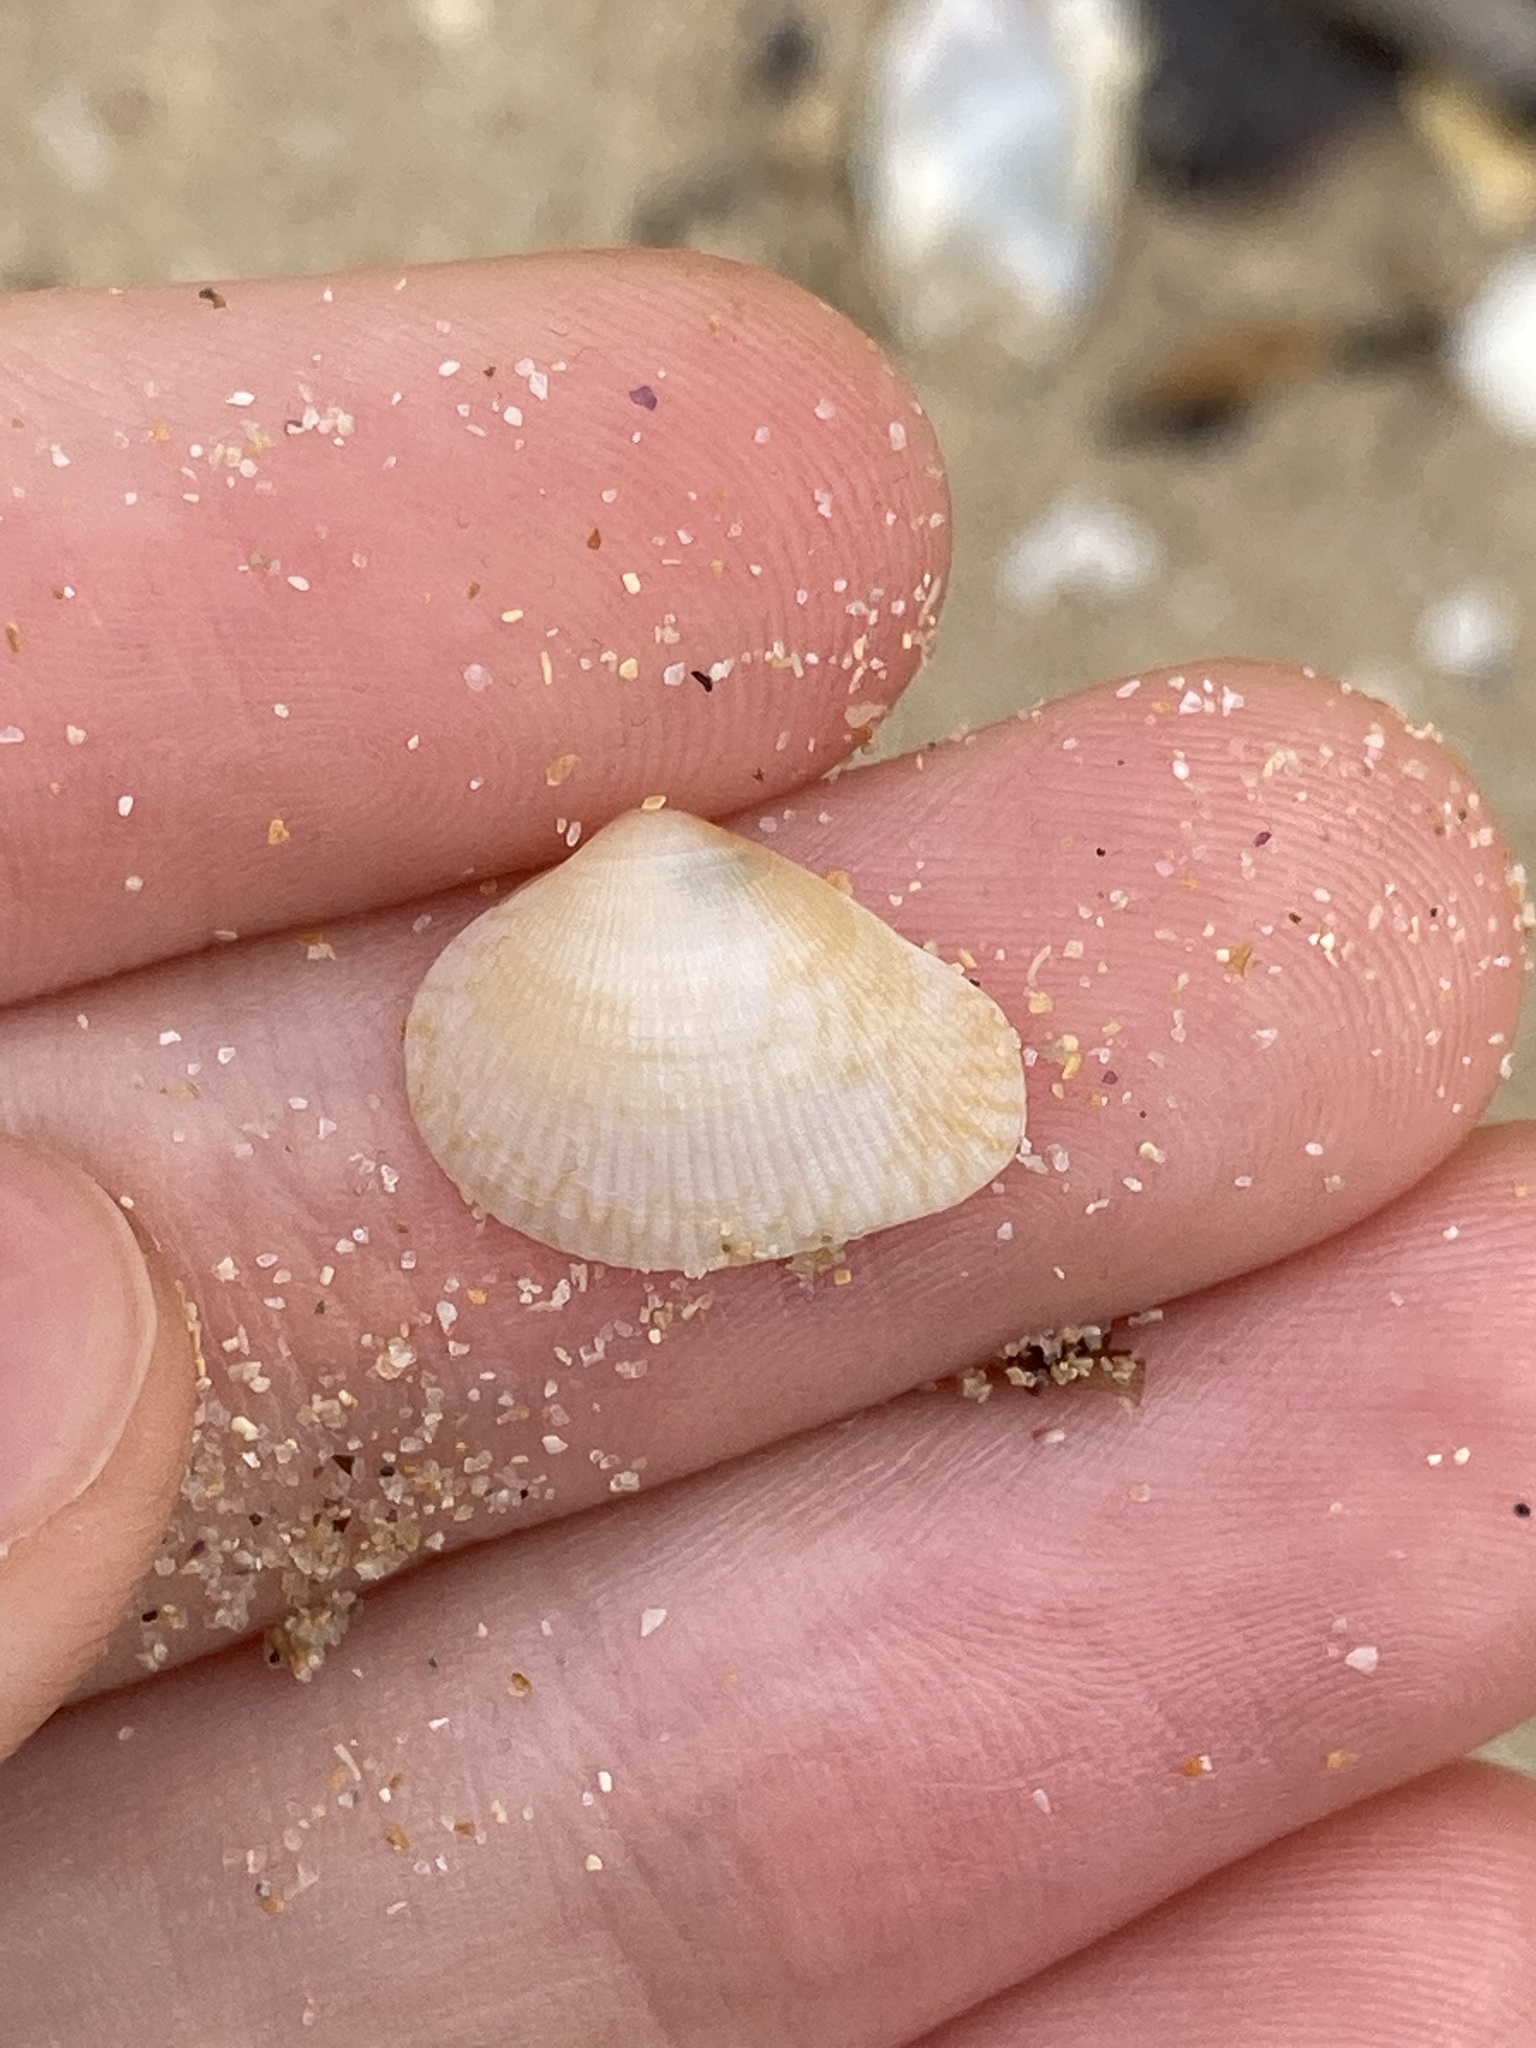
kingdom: Animalia
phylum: Mollusca
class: Bivalvia
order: Venerida
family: Veneridae
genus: Chioneryx
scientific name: Chioneryx cardioides
